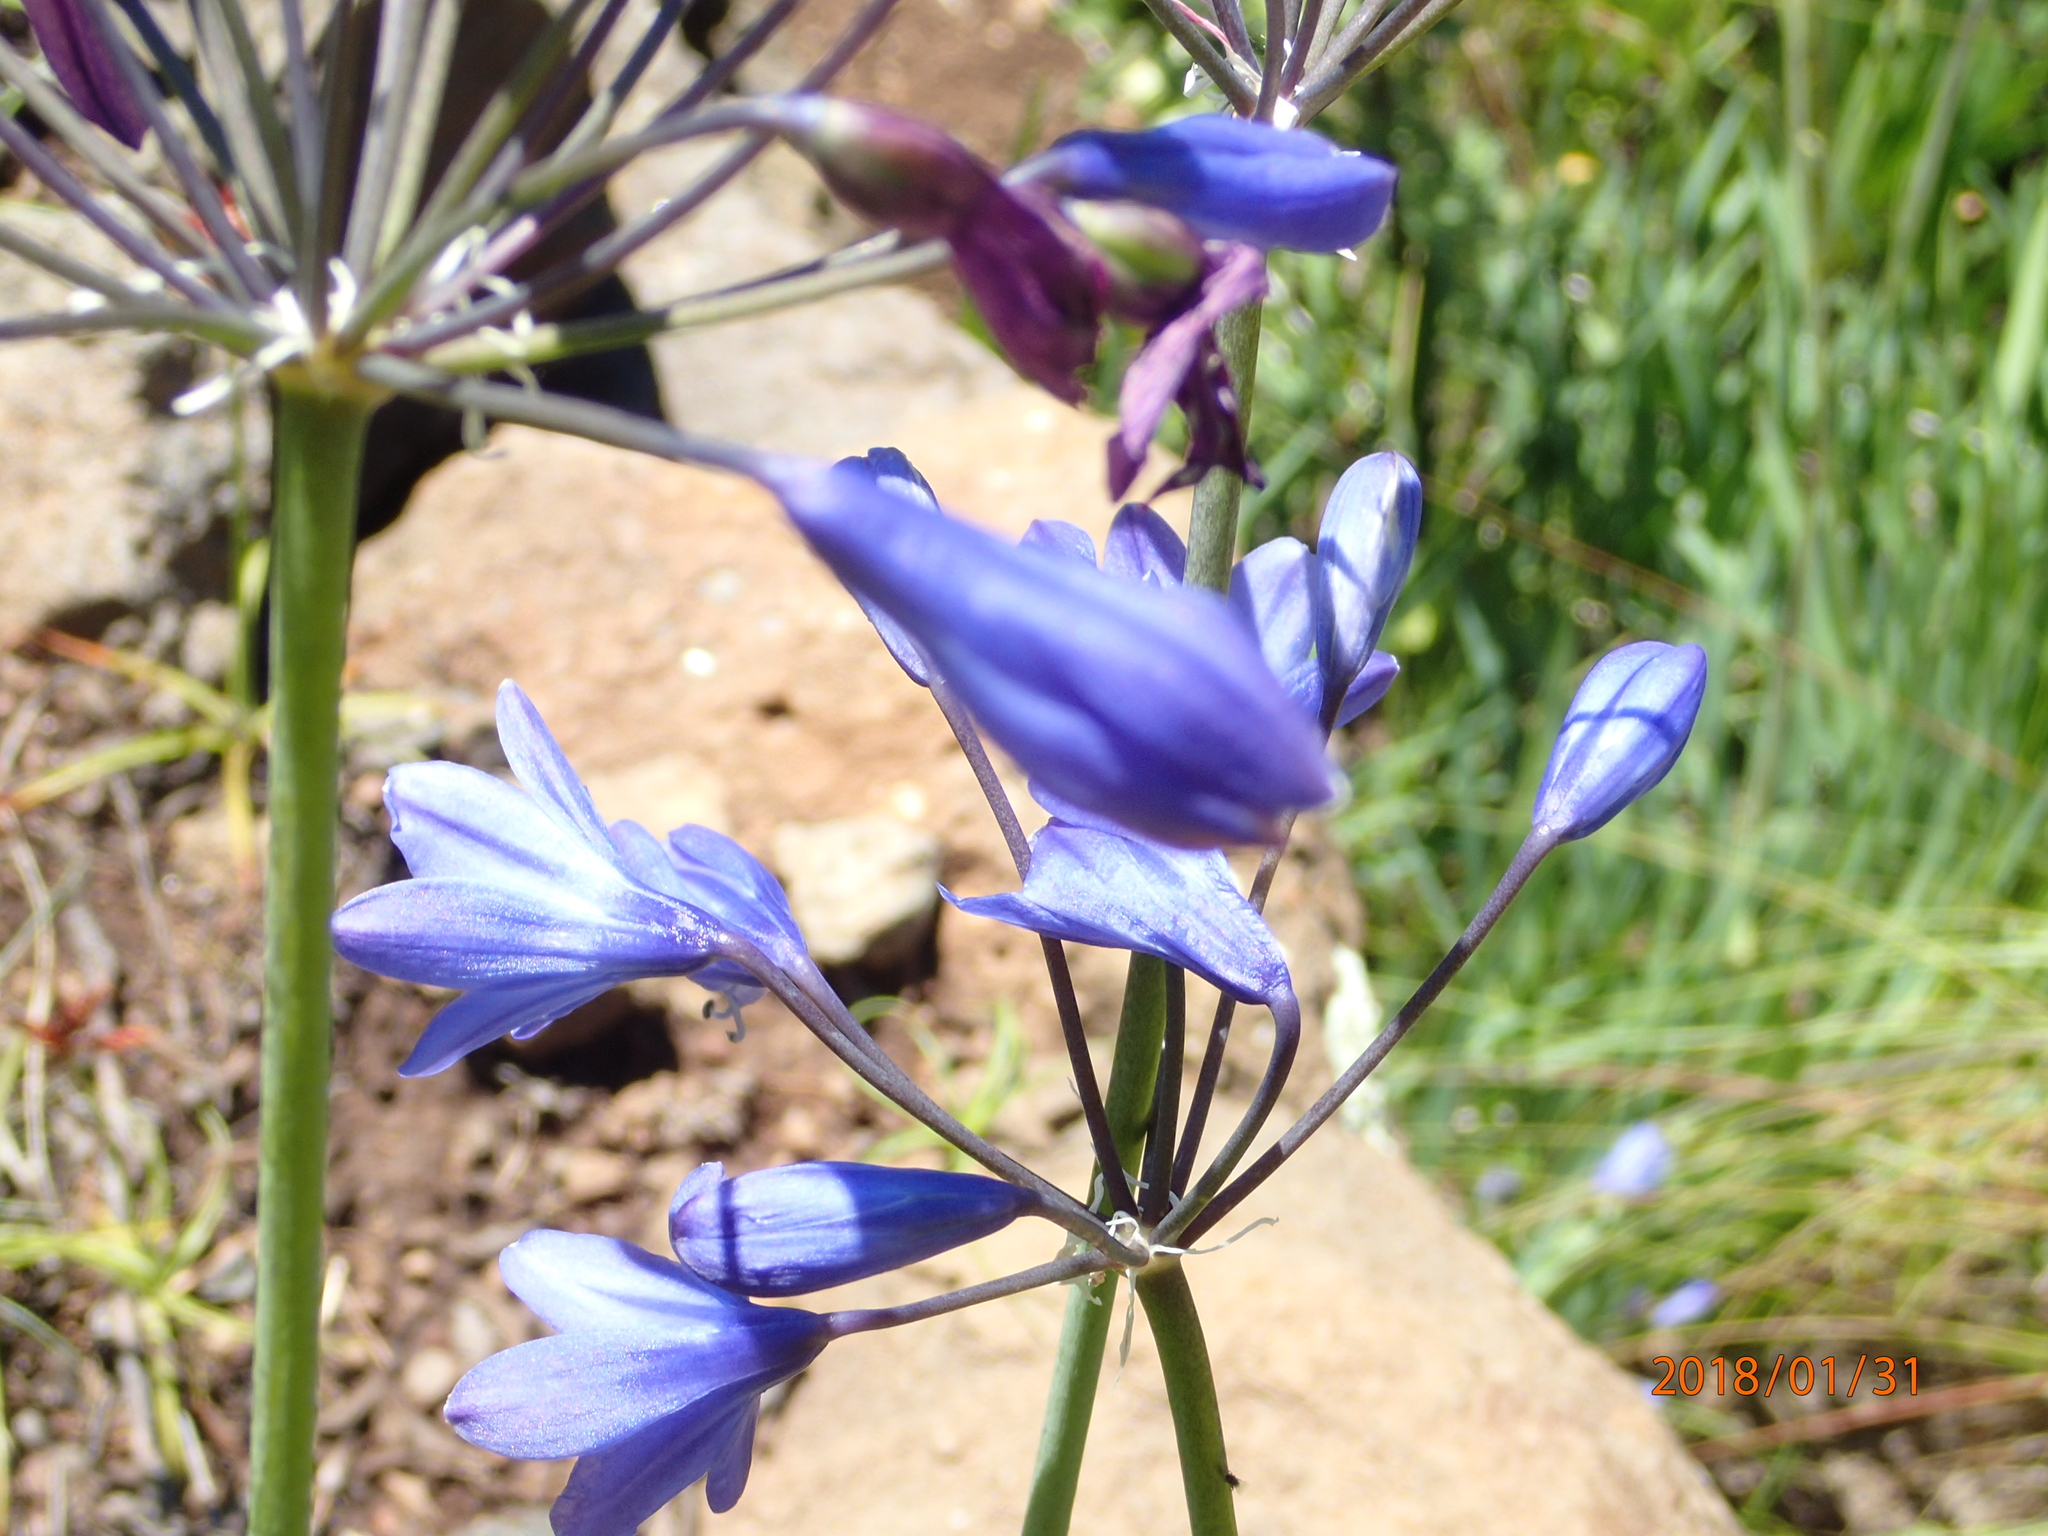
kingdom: Plantae
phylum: Tracheophyta
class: Liliopsida
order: Asparagales
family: Amaryllidaceae
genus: Agapanthus
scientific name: Agapanthus campanulatus
